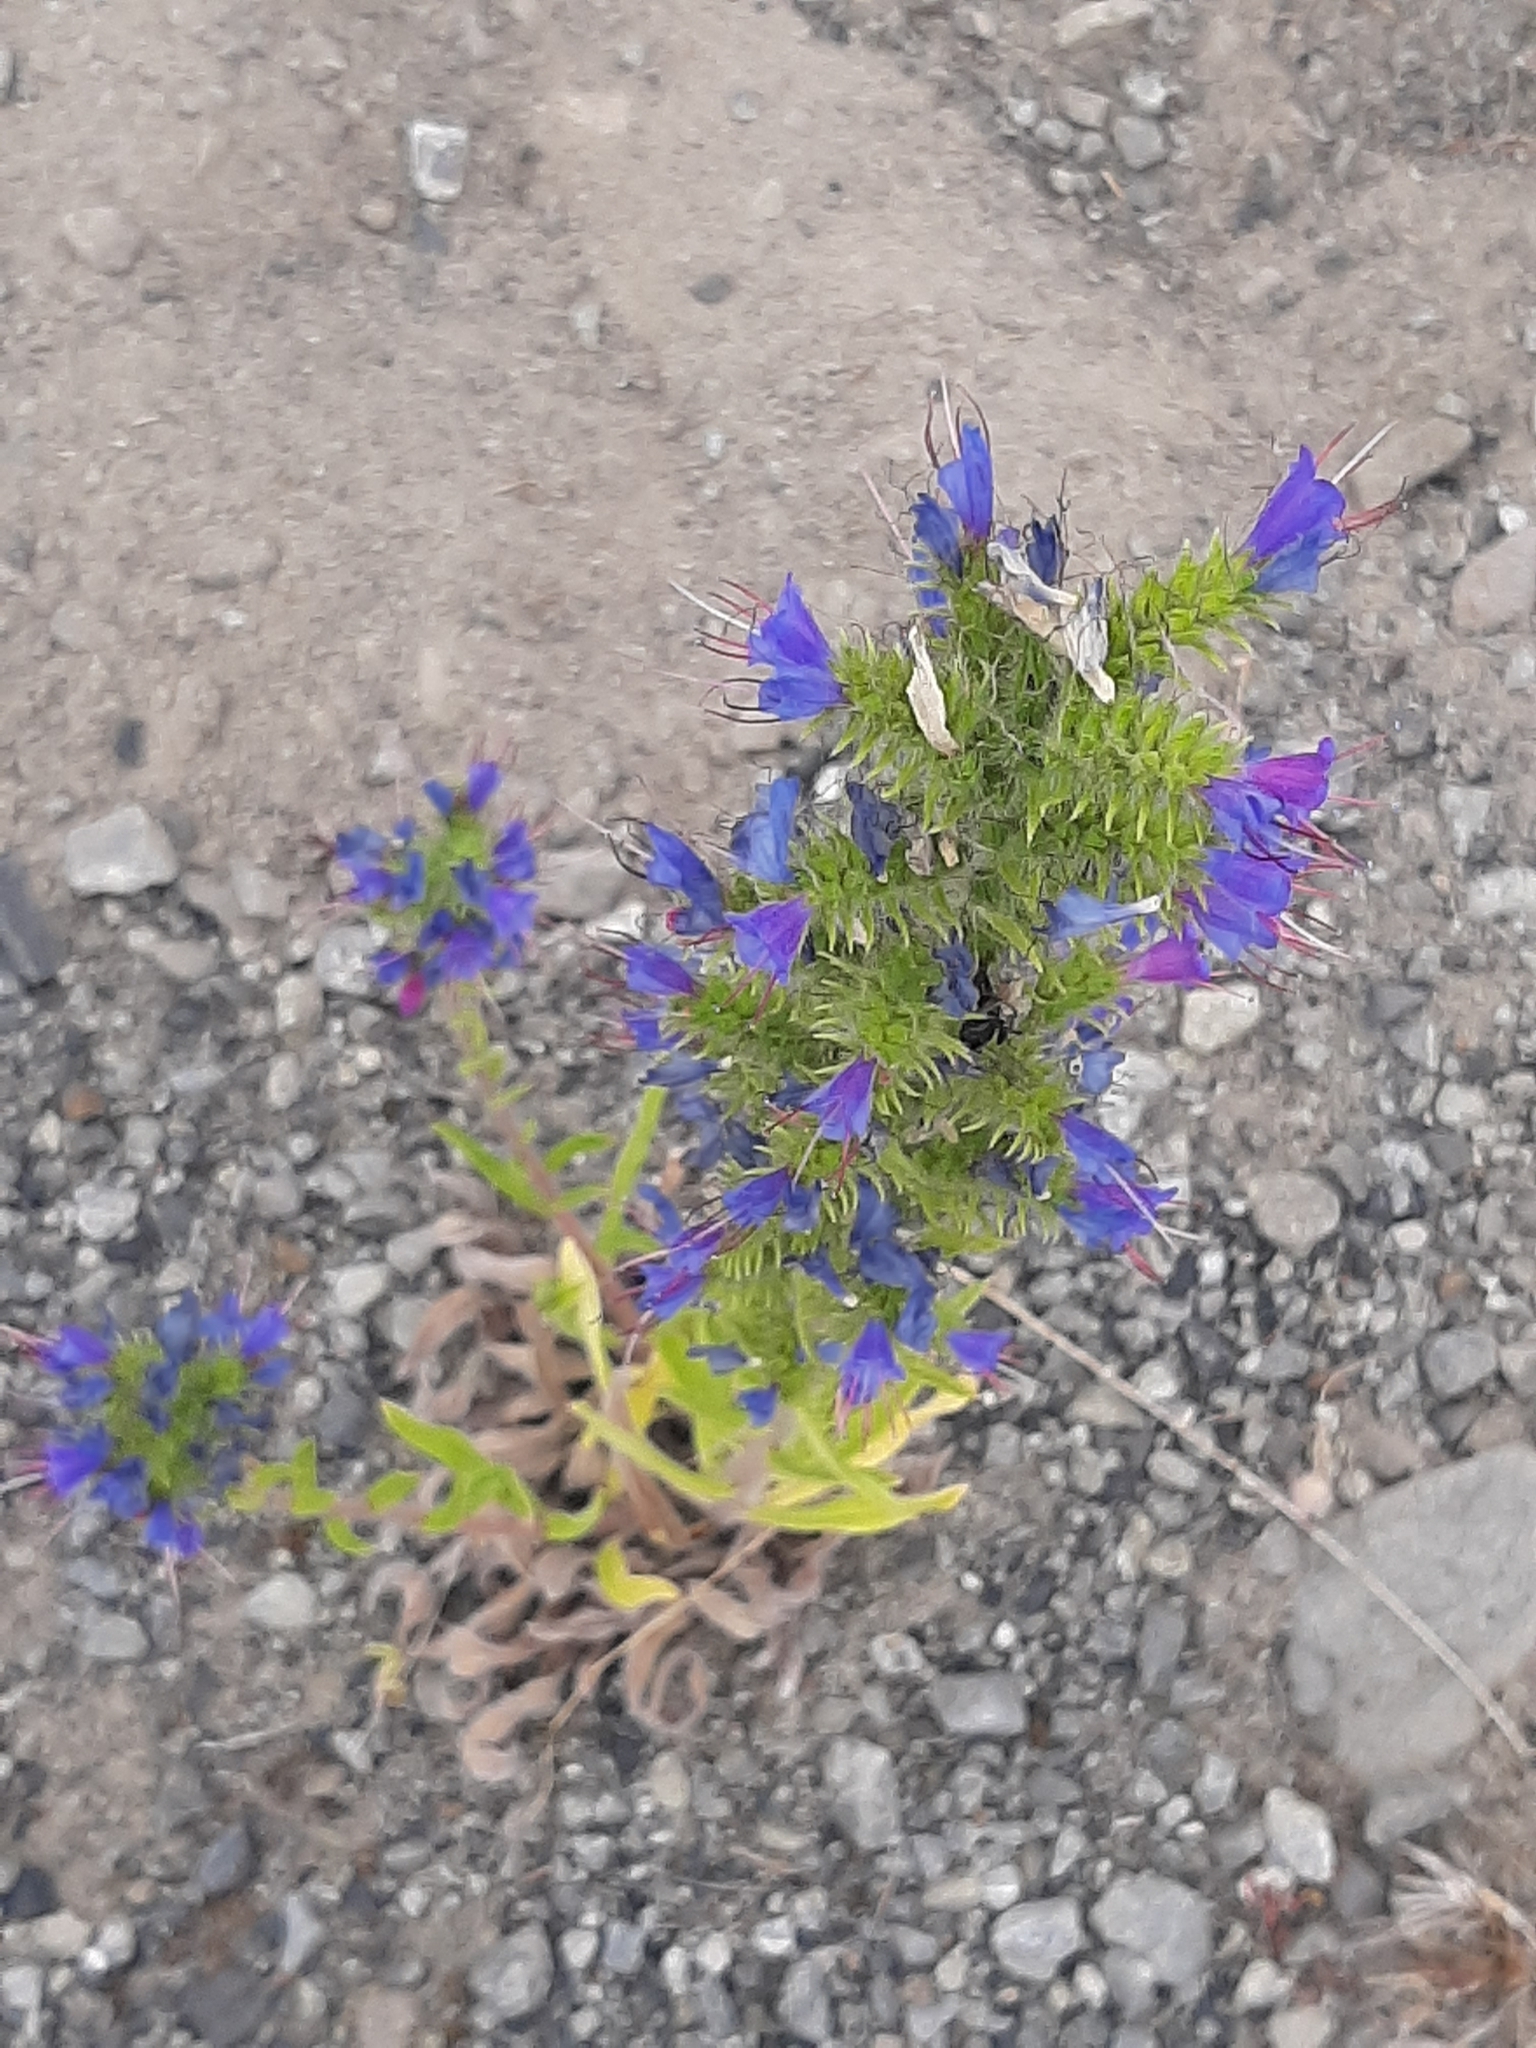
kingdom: Plantae
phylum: Tracheophyta
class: Magnoliopsida
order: Boraginales
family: Boraginaceae
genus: Echium
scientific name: Echium vulgare
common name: Common viper's bugloss
